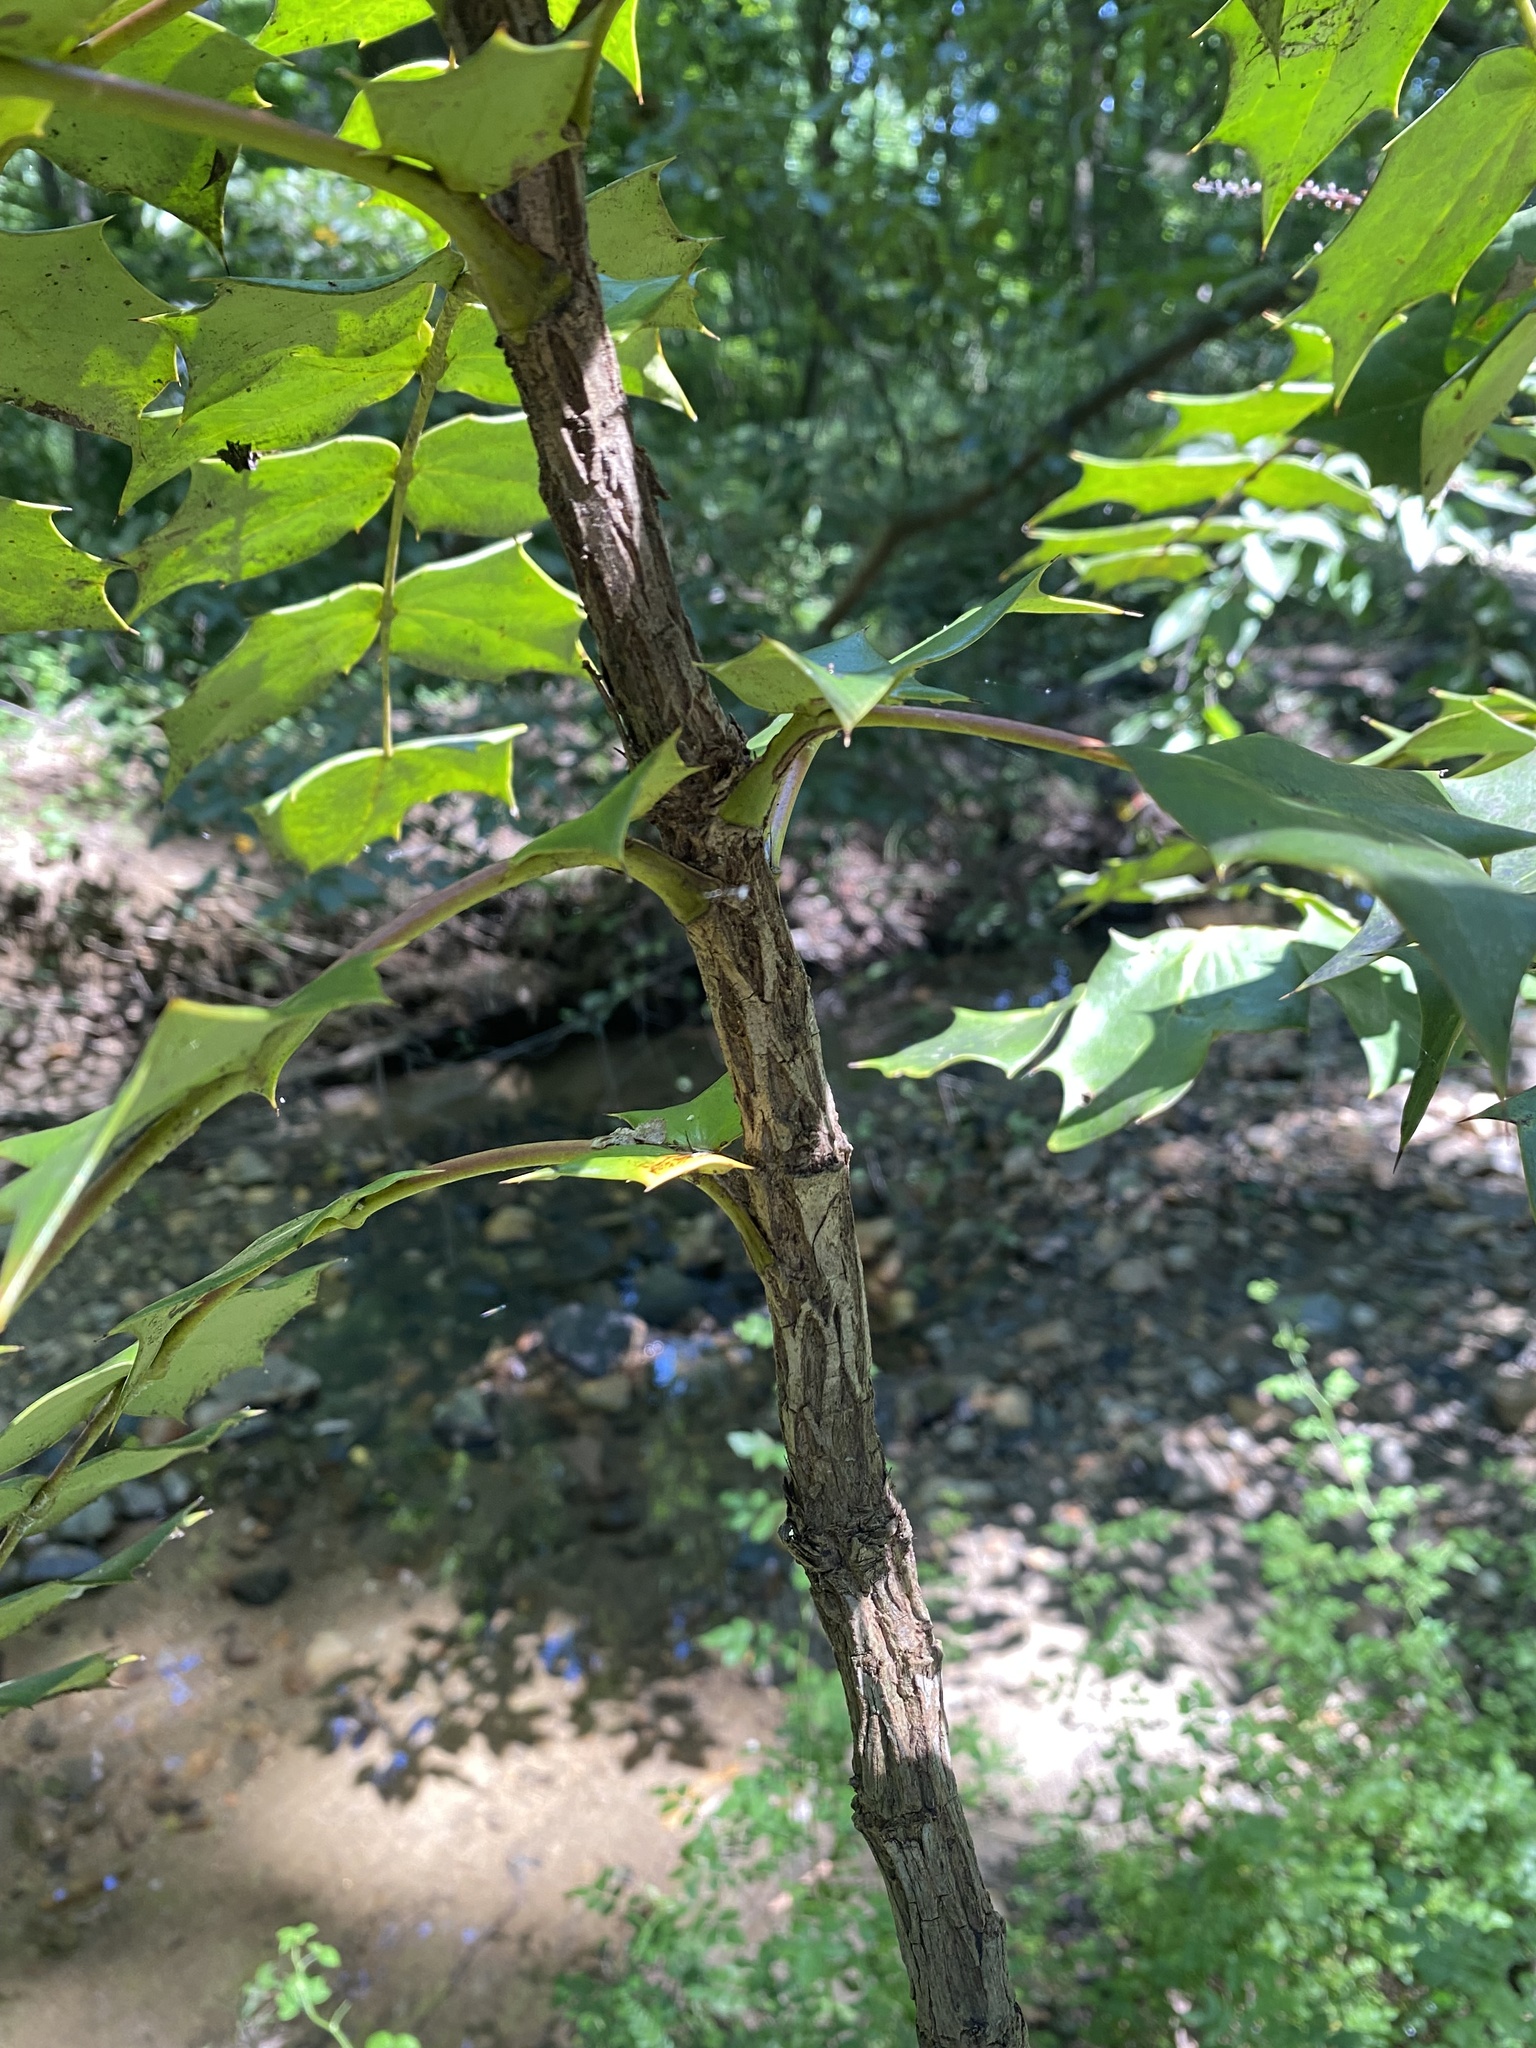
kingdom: Plantae
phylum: Tracheophyta
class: Magnoliopsida
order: Ranunculales
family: Berberidaceae
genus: Mahonia
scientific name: Mahonia bealei
